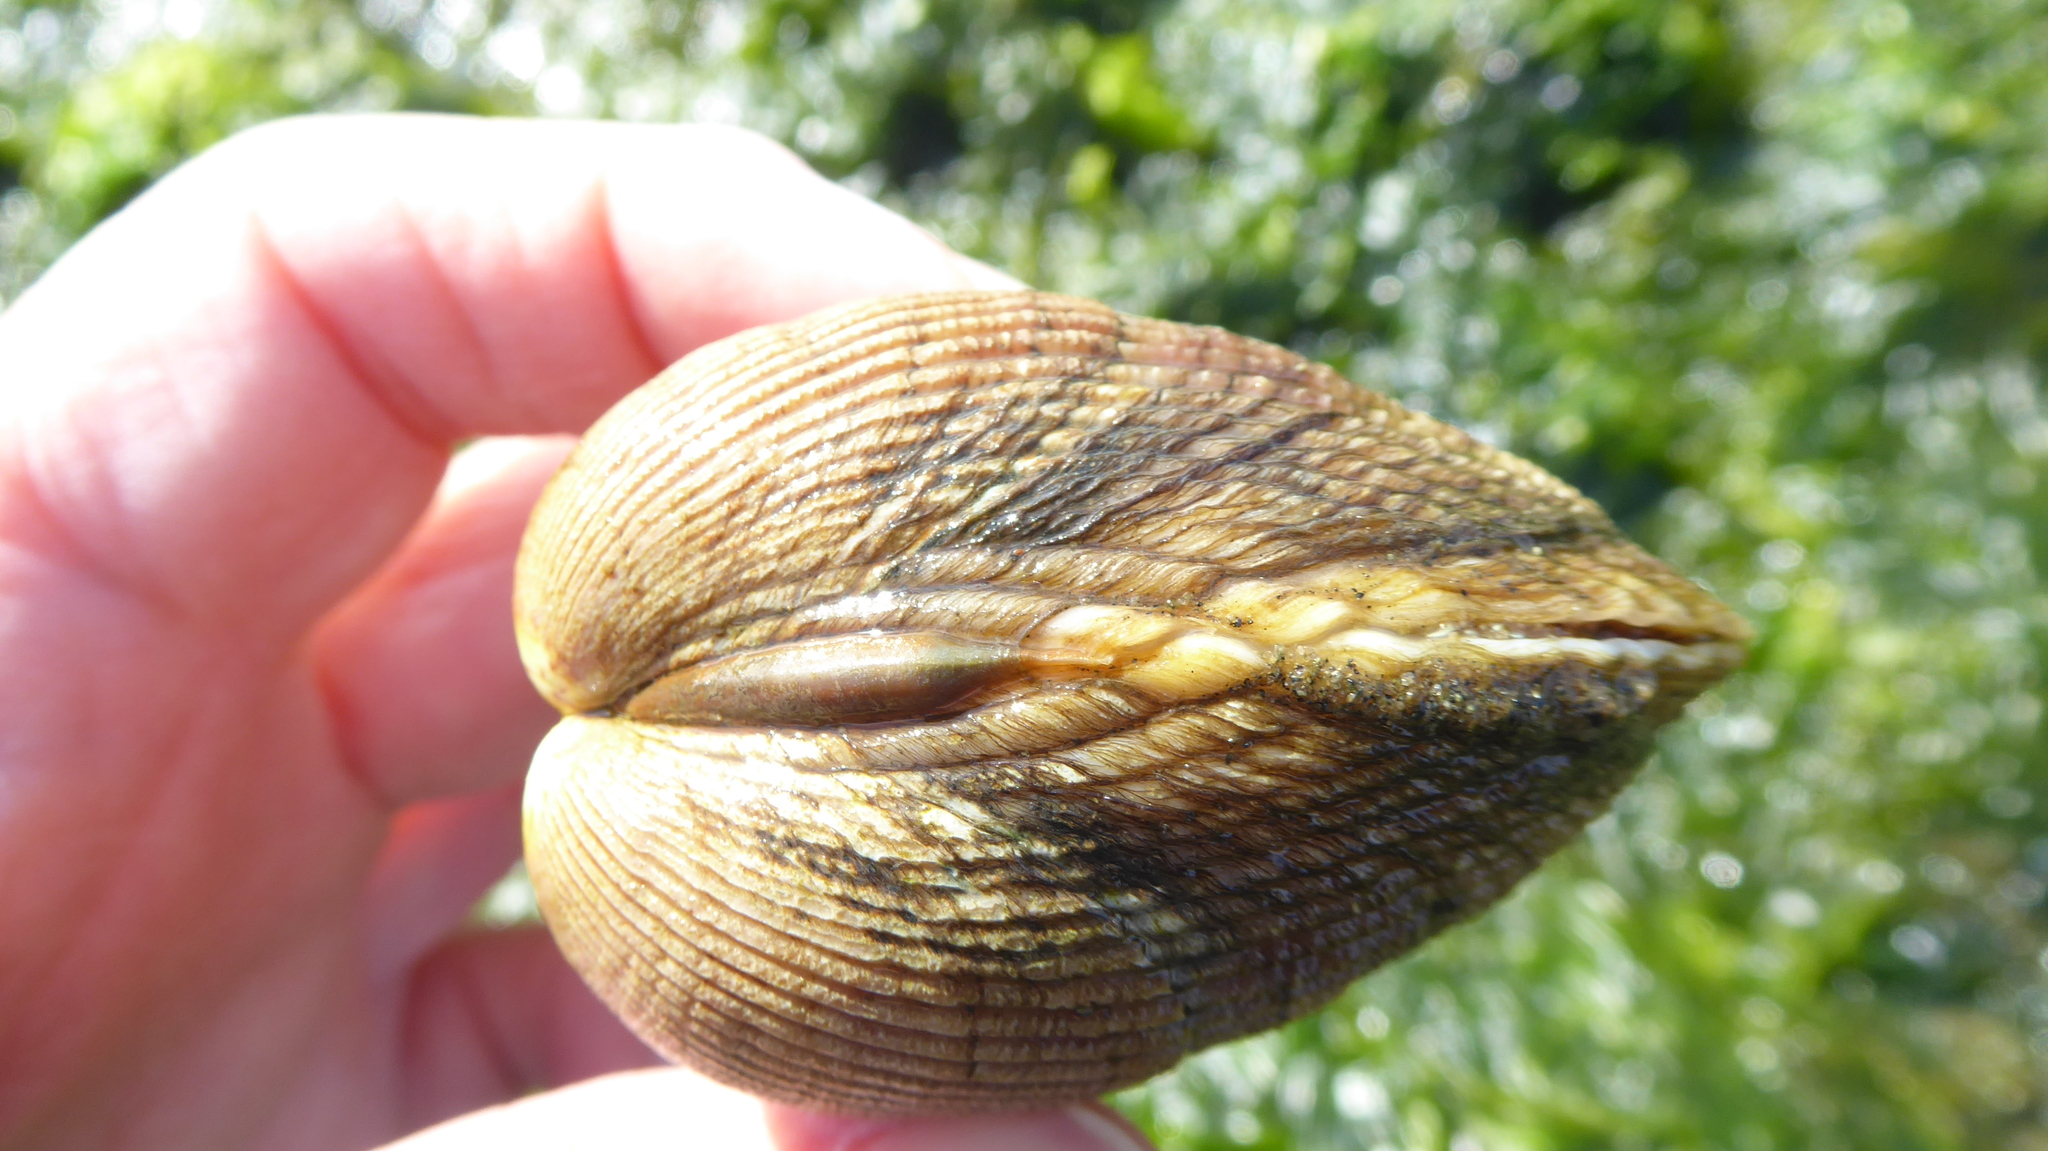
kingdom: Animalia
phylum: Mollusca
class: Bivalvia
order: Cardiida
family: Cardiidae
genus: Clinocardium
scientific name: Clinocardium nuttallii
